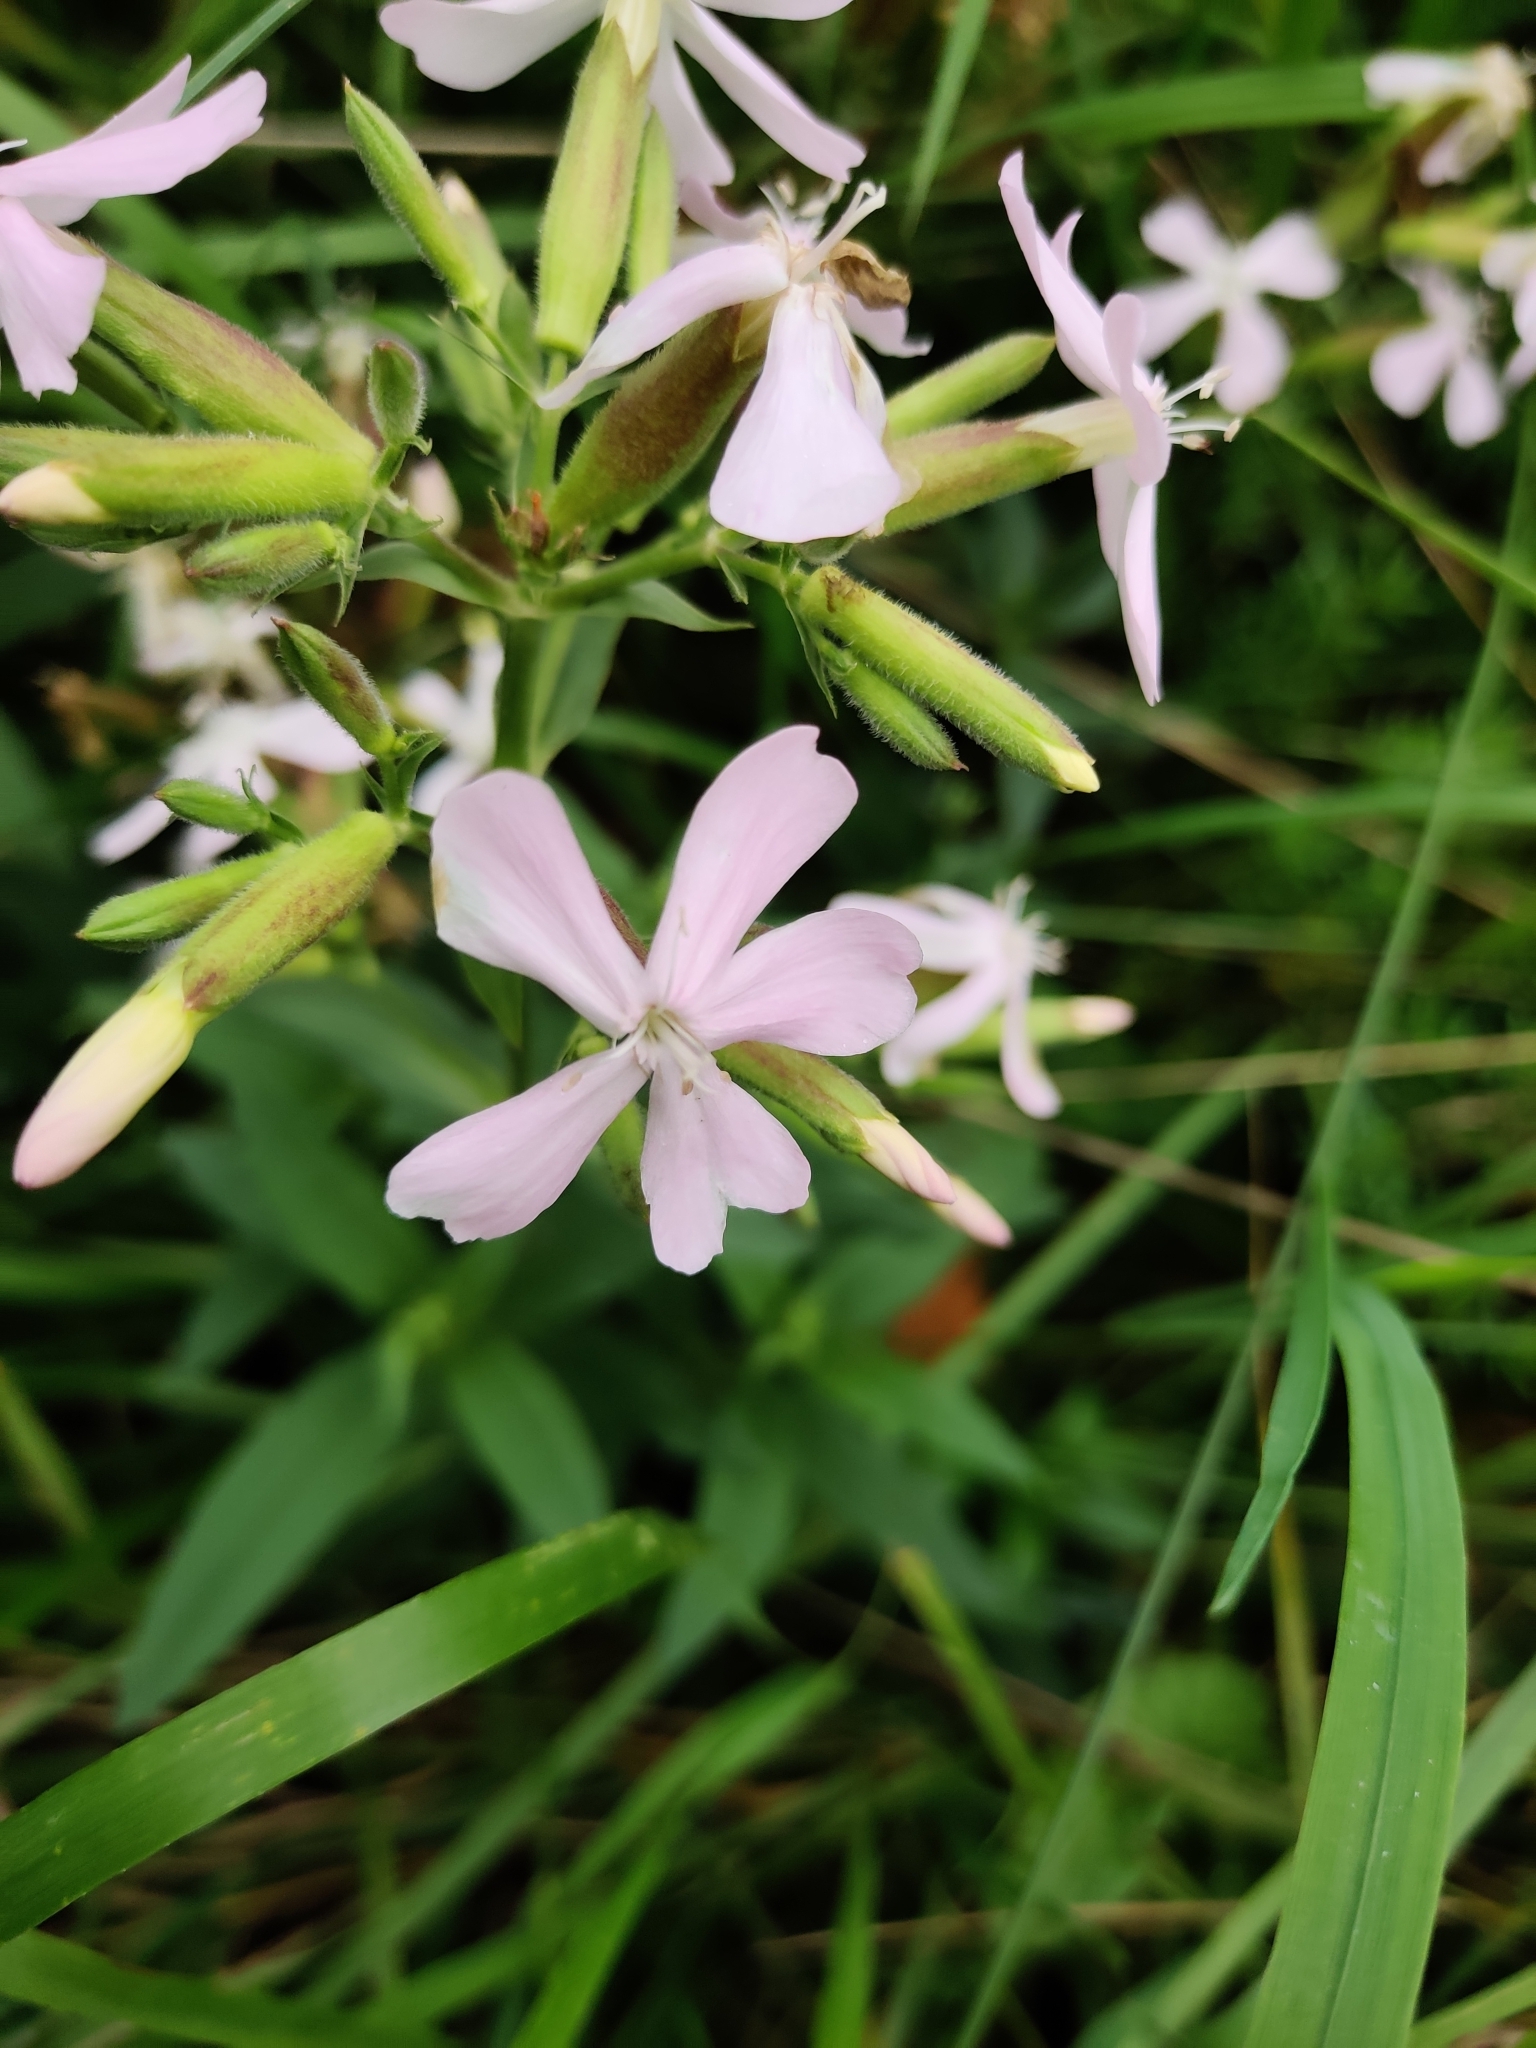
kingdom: Plantae
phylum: Tracheophyta
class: Magnoliopsida
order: Caryophyllales
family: Caryophyllaceae
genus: Saponaria
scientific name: Saponaria officinalis
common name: Soapwort
